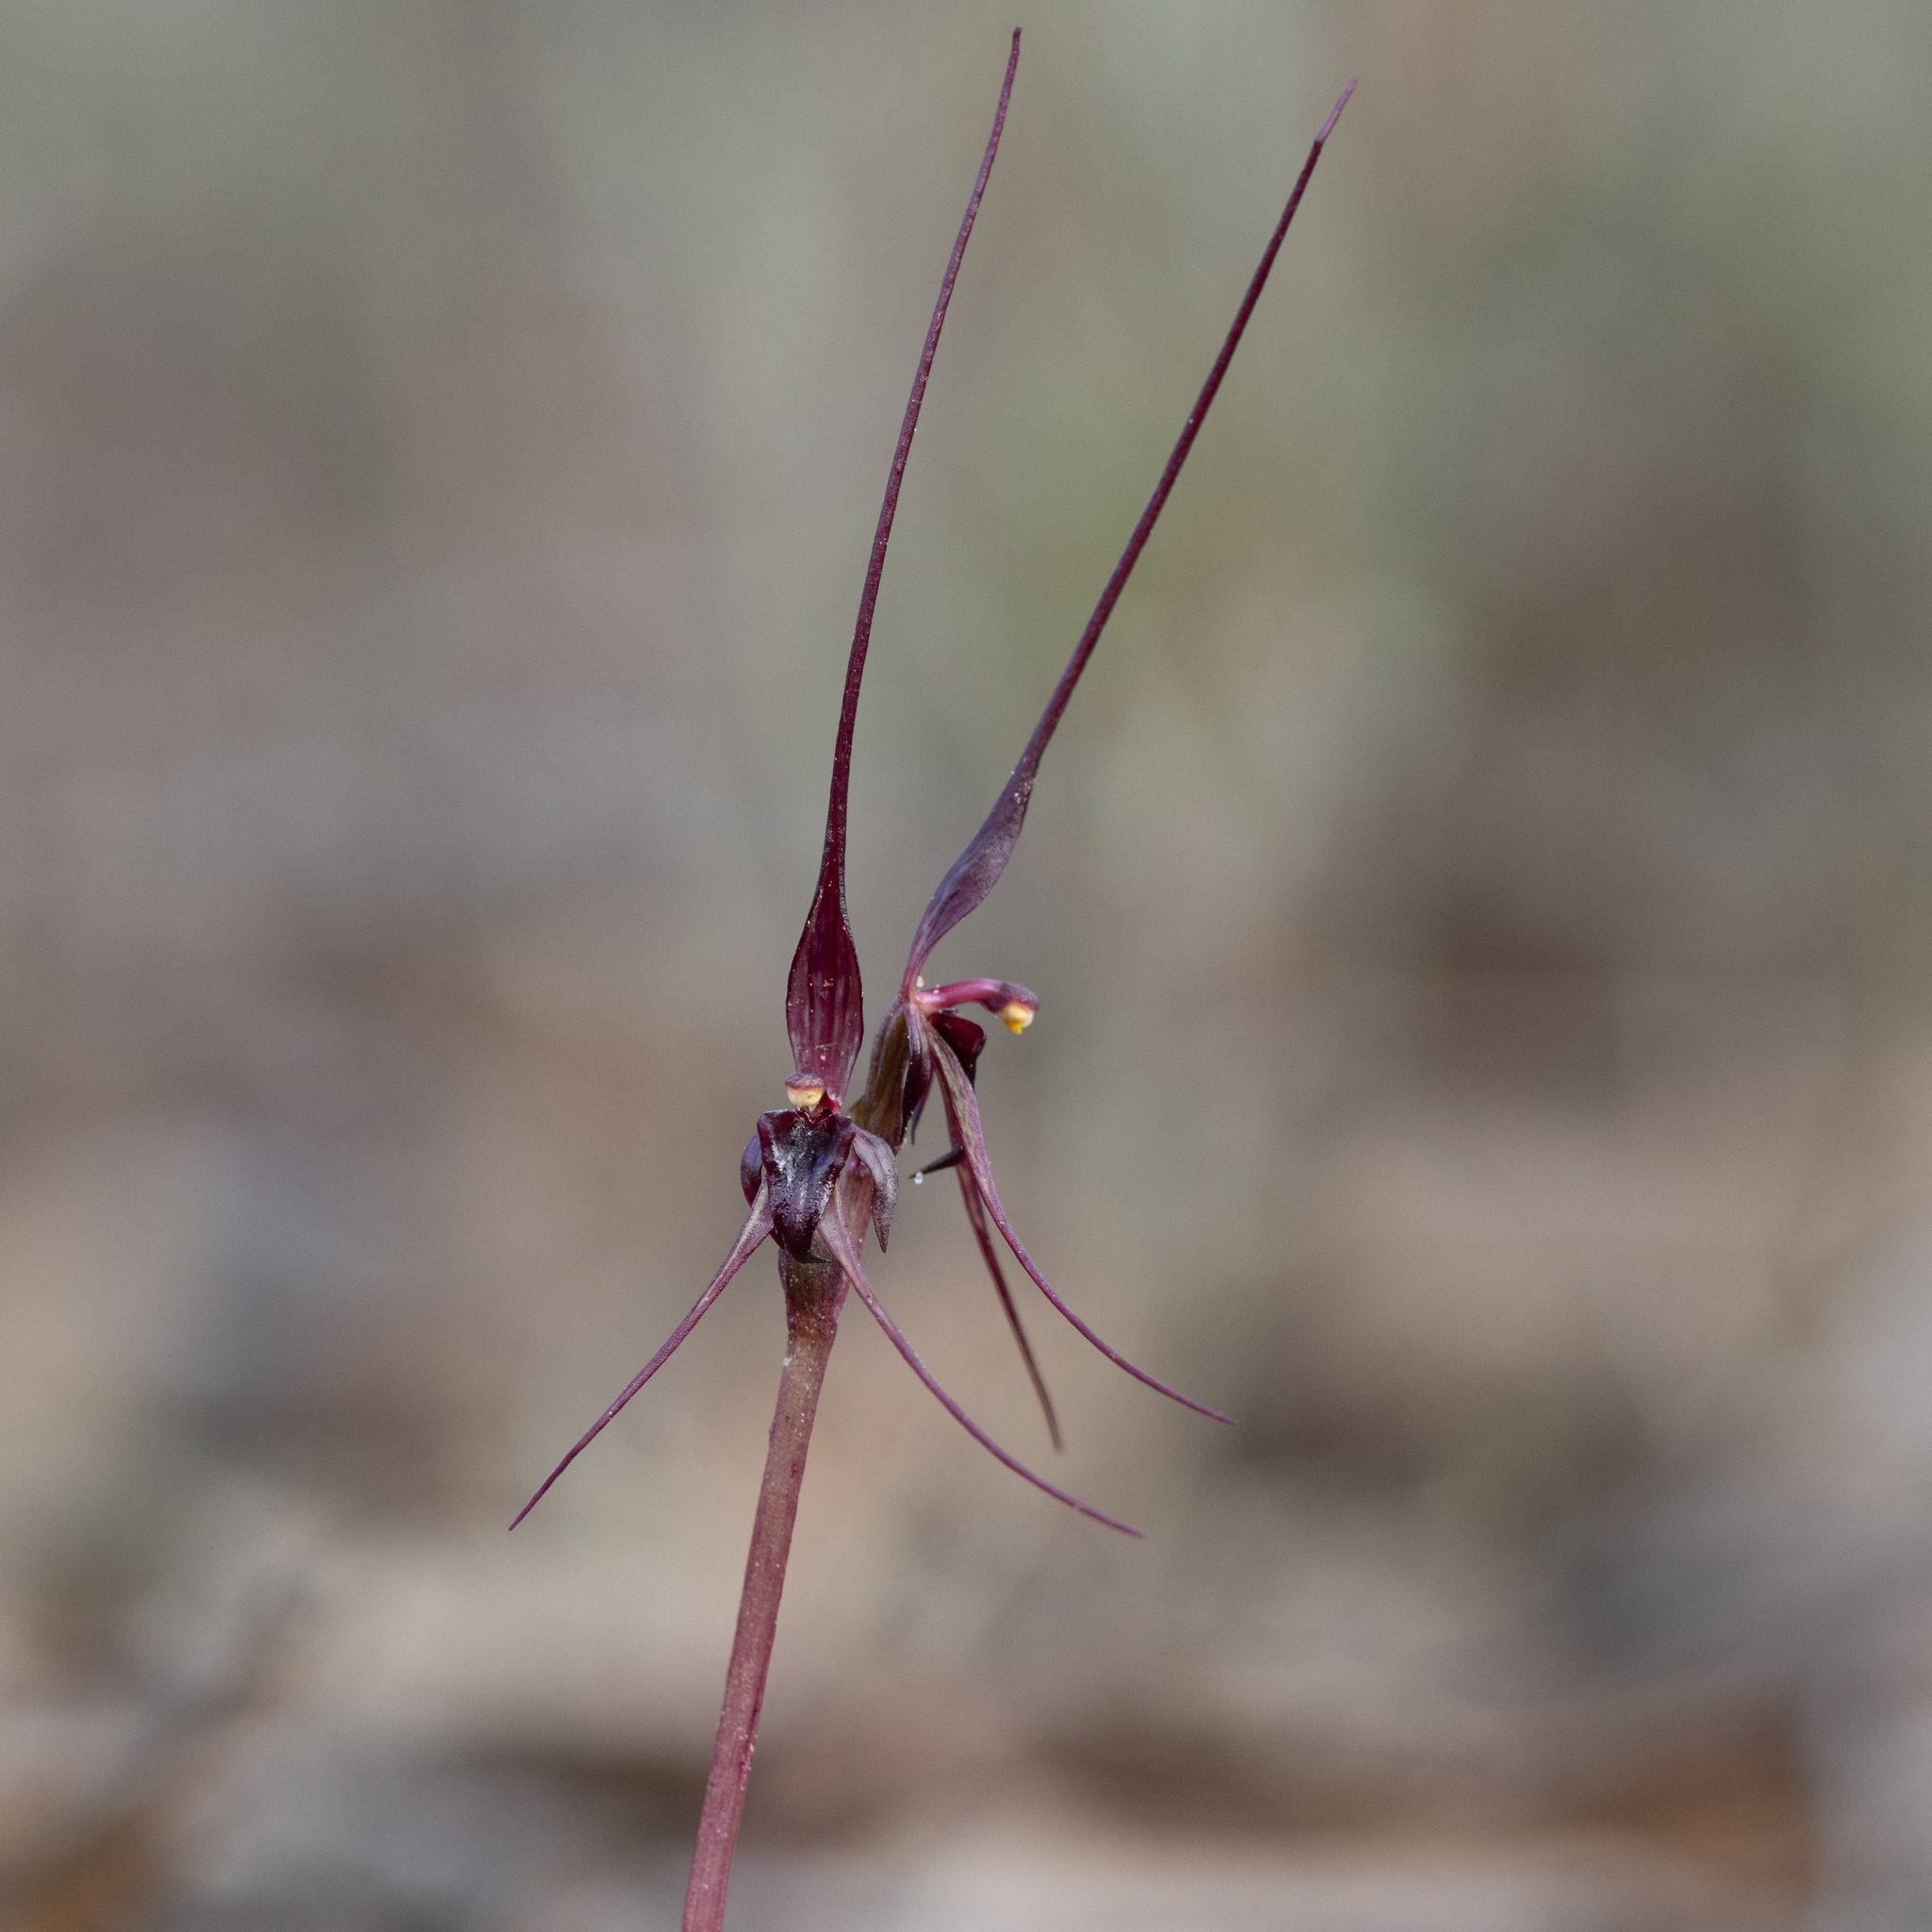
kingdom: Plantae
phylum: Tracheophyta
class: Liliopsida
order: Asparagales
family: Orchidaceae
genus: Acianthus
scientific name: Acianthus caudatus
